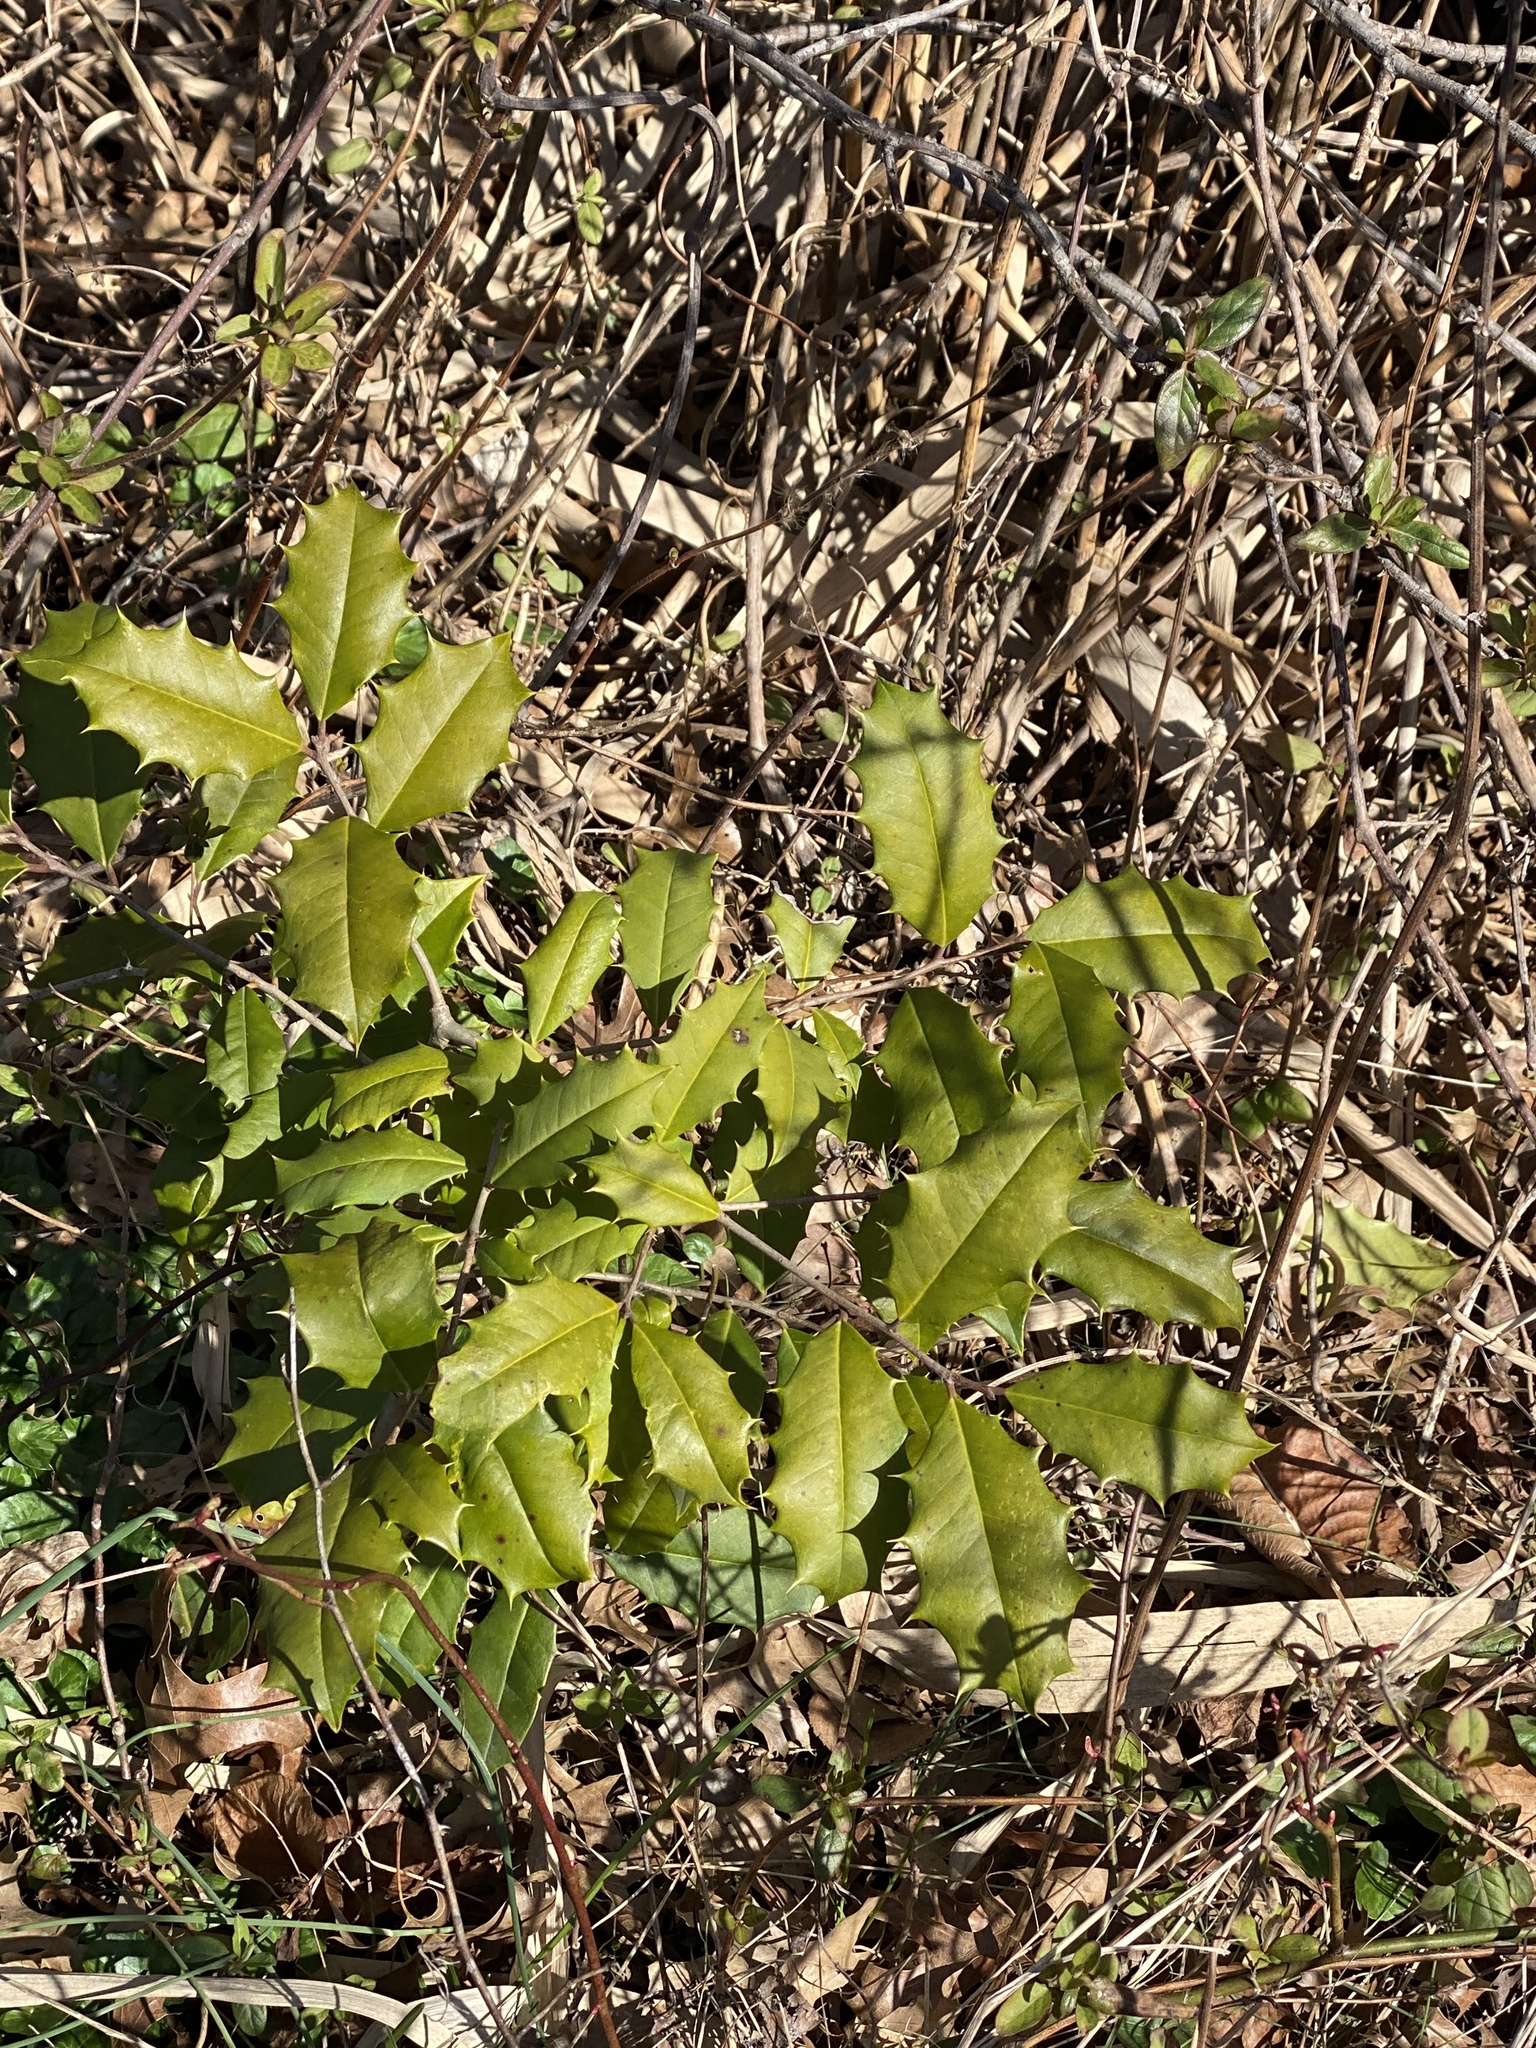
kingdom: Plantae
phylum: Tracheophyta
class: Magnoliopsida
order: Aquifoliales
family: Aquifoliaceae
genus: Ilex
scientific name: Ilex opaca
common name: American holly
